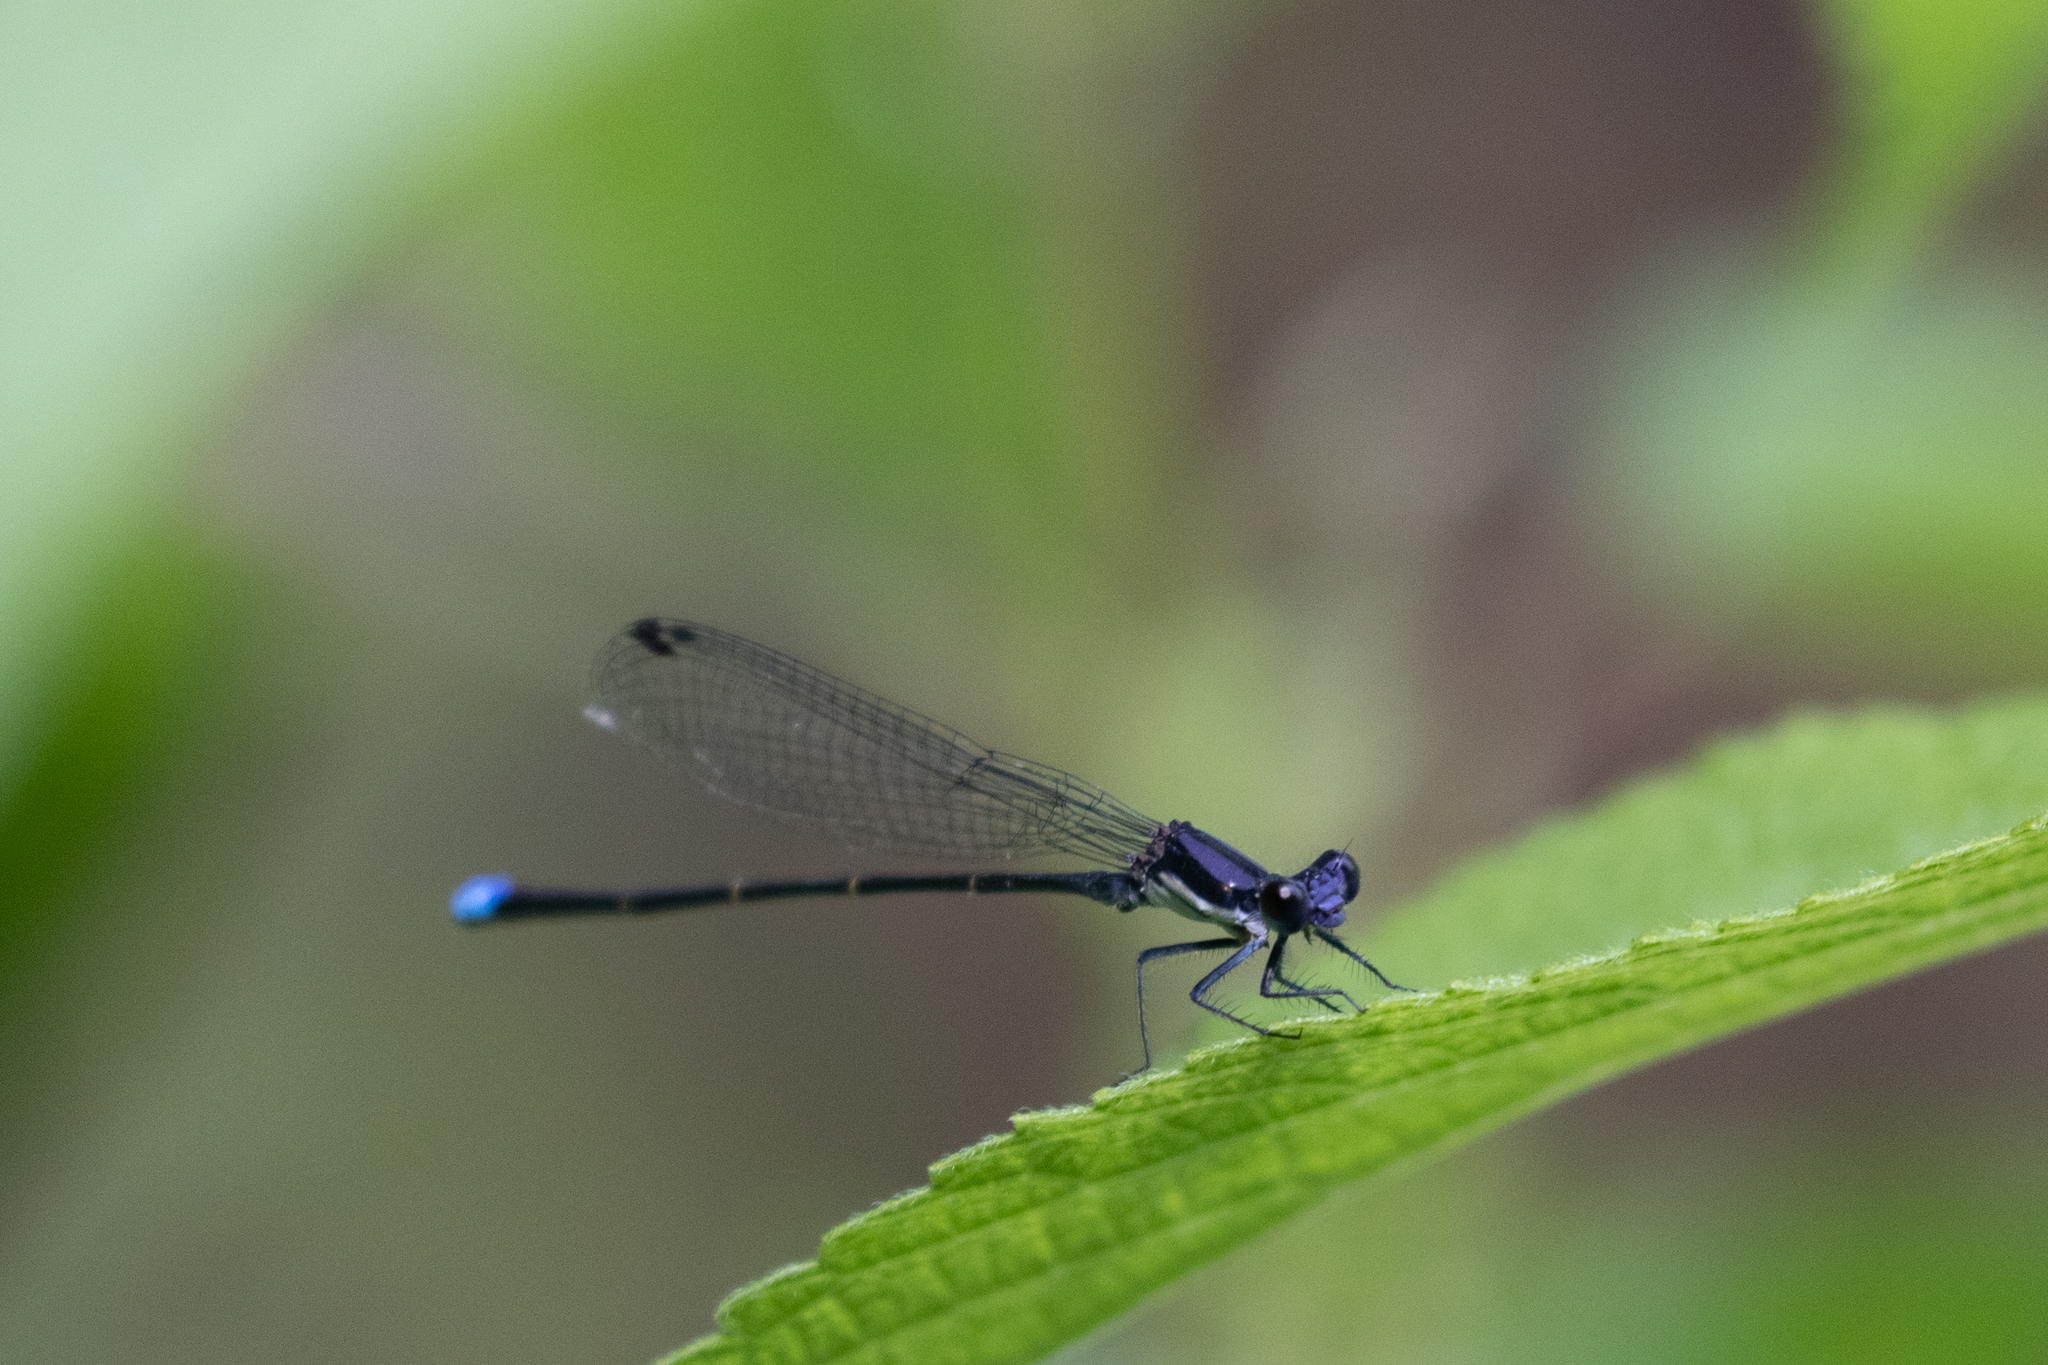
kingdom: Animalia
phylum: Arthropoda
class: Insecta
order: Odonata
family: Coenagrionidae
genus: Argia
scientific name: Argia tibialis
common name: Blue-tipped dancer
